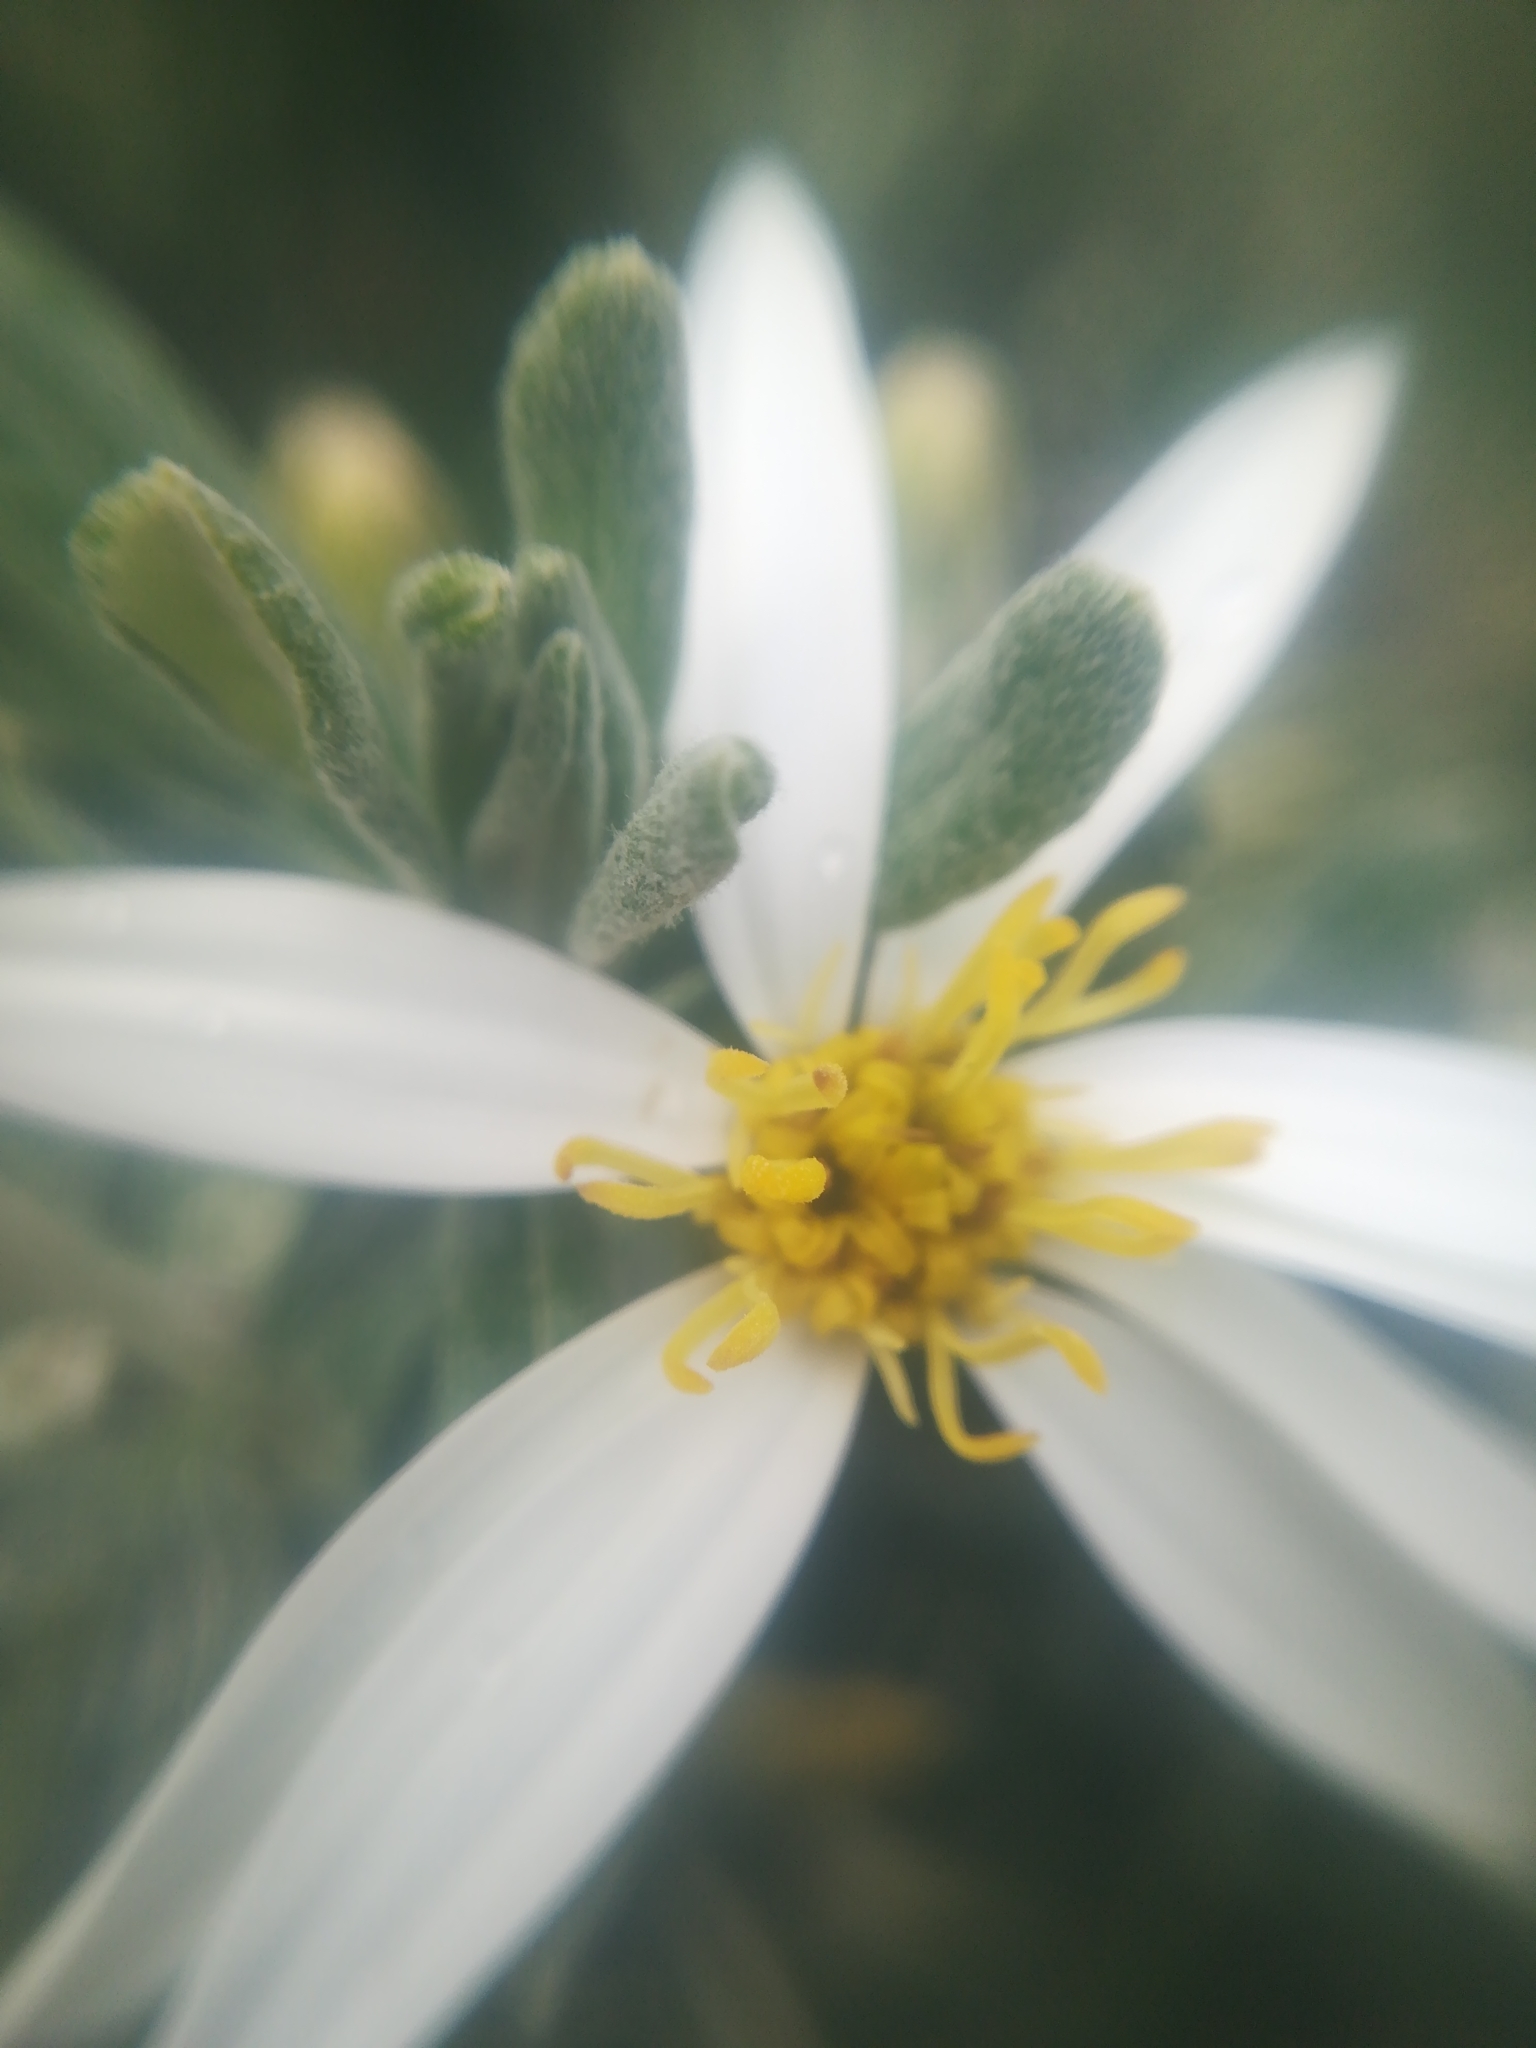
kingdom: Plantae
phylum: Tracheophyta
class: Magnoliopsida
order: Asterales
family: Asteraceae
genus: Chiliotrichum
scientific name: Chiliotrichum diffusum
